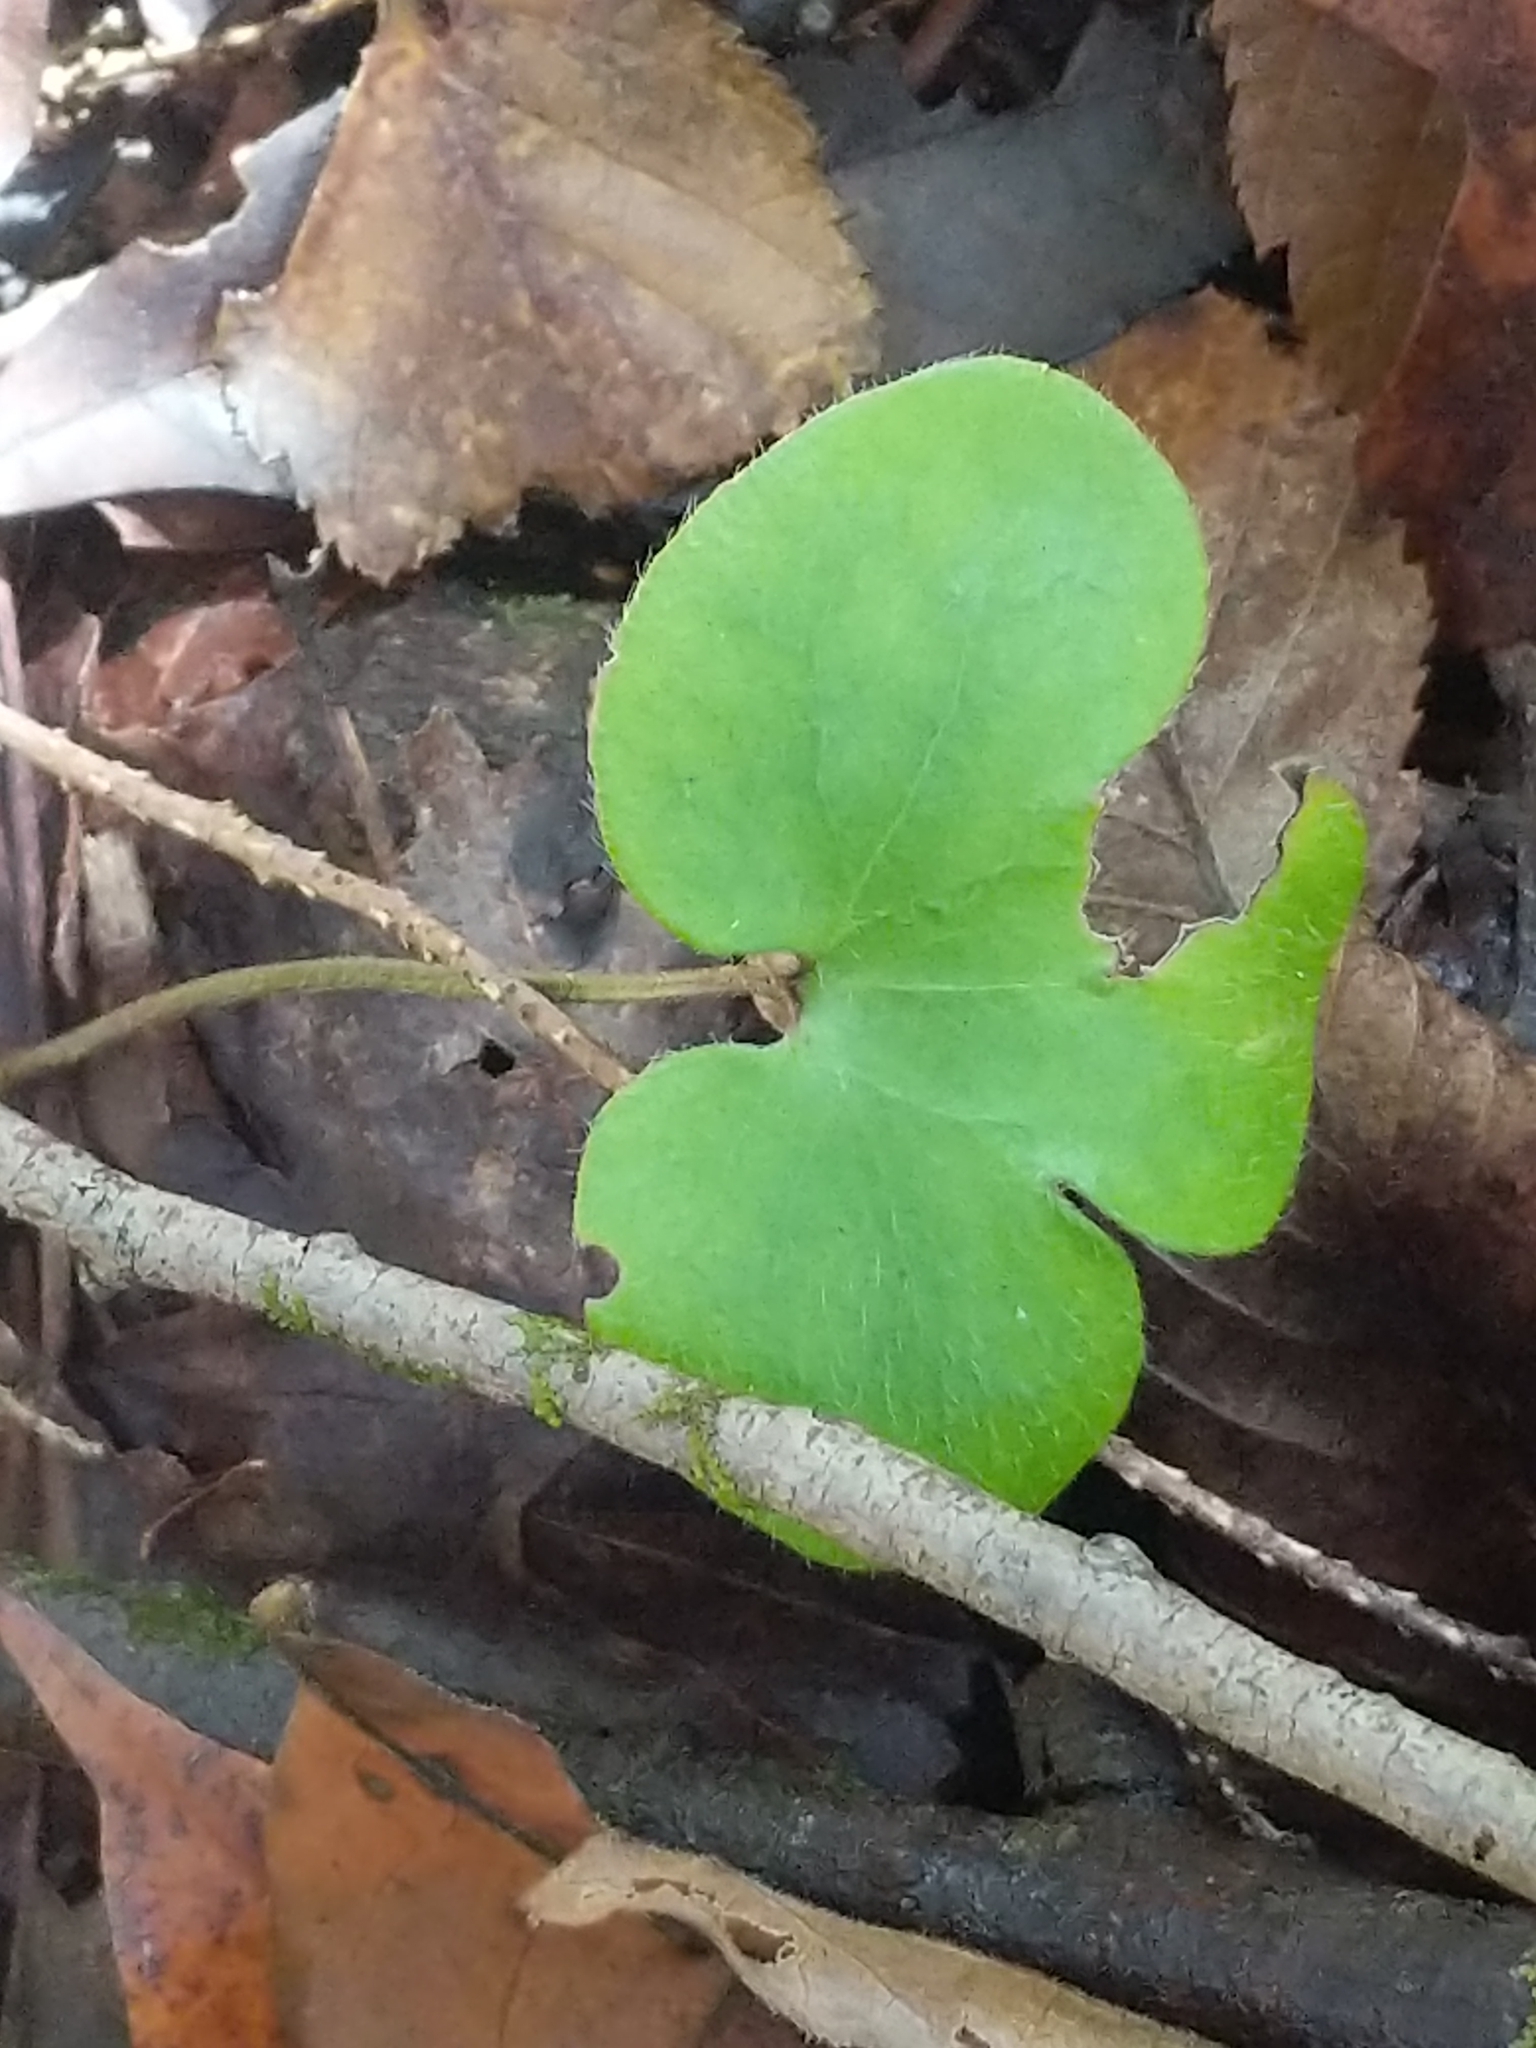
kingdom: Plantae
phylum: Tracheophyta
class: Magnoliopsida
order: Ranunculales
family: Ranunculaceae
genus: Hepatica
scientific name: Hepatica americana
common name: American hepatica
